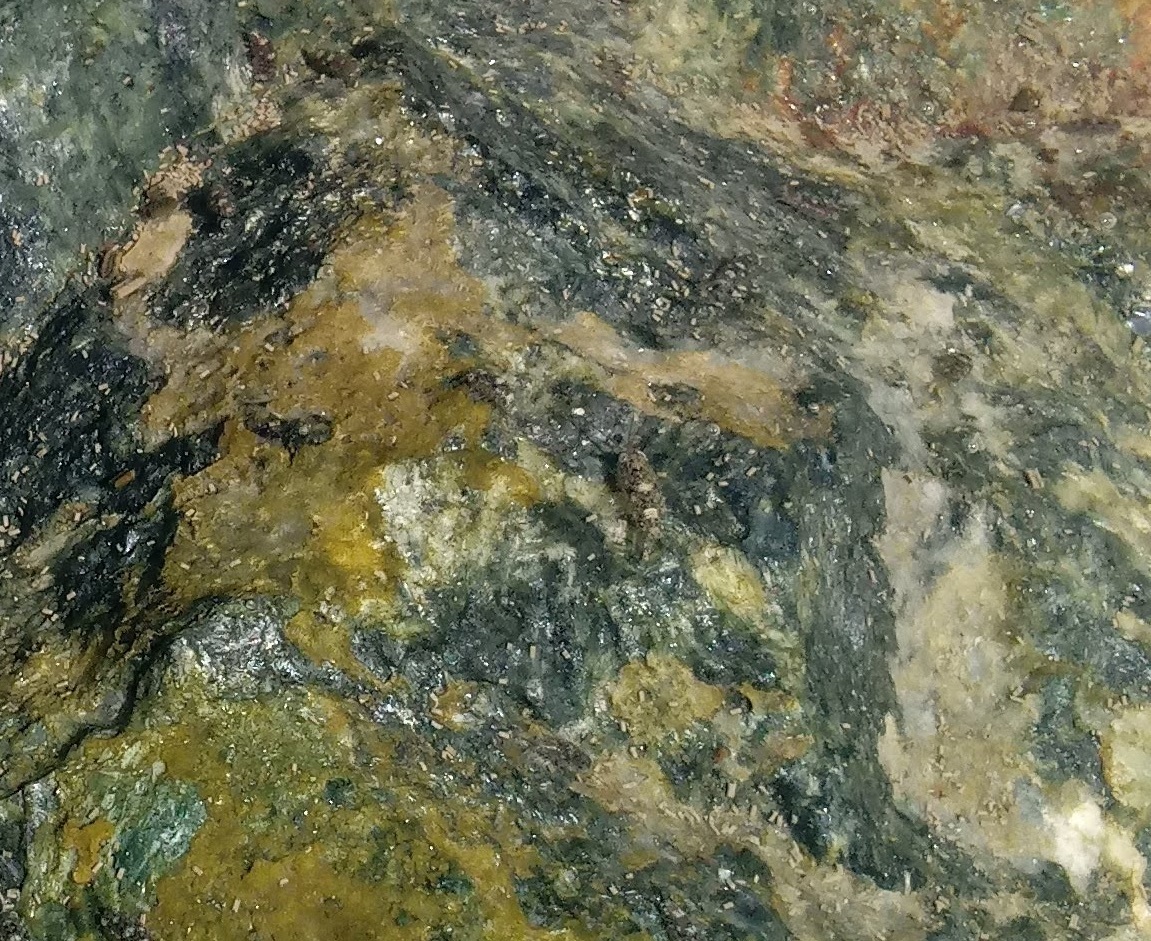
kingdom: Animalia
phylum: Arthropoda
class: Malacostraca
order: Isopoda
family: Ligiidae
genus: Ligia
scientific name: Ligia exotica
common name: Wharf roach
